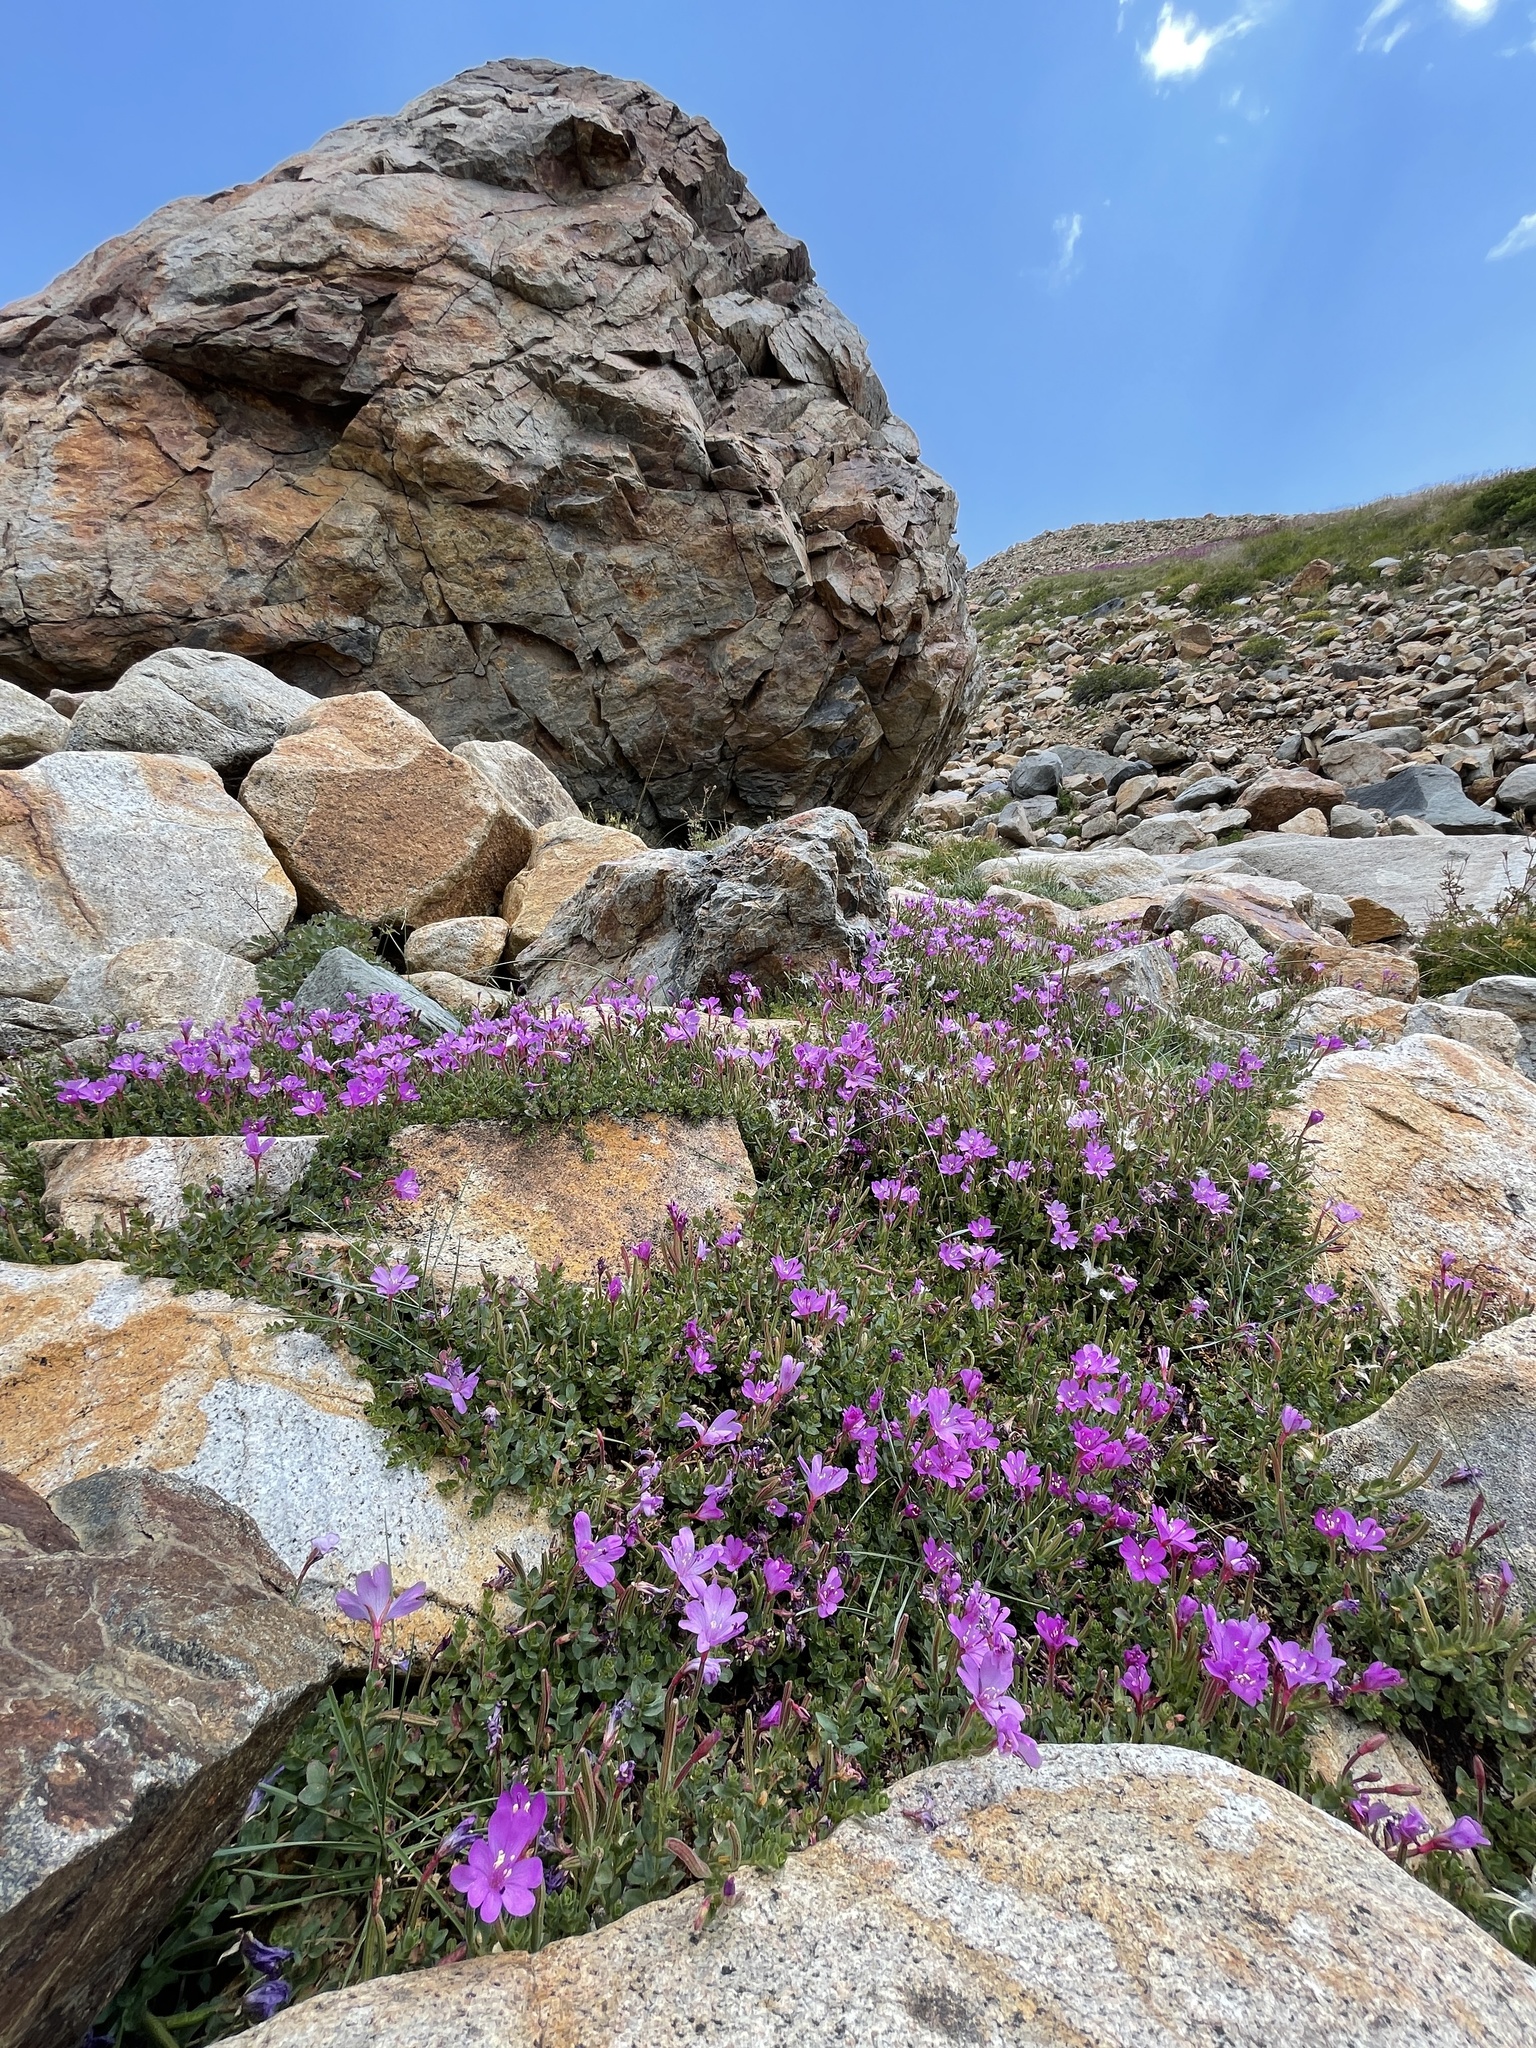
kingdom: Plantae
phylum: Tracheophyta
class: Magnoliopsida
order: Myrtales
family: Onagraceae
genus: Epilobium
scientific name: Epilobium obcordatum
